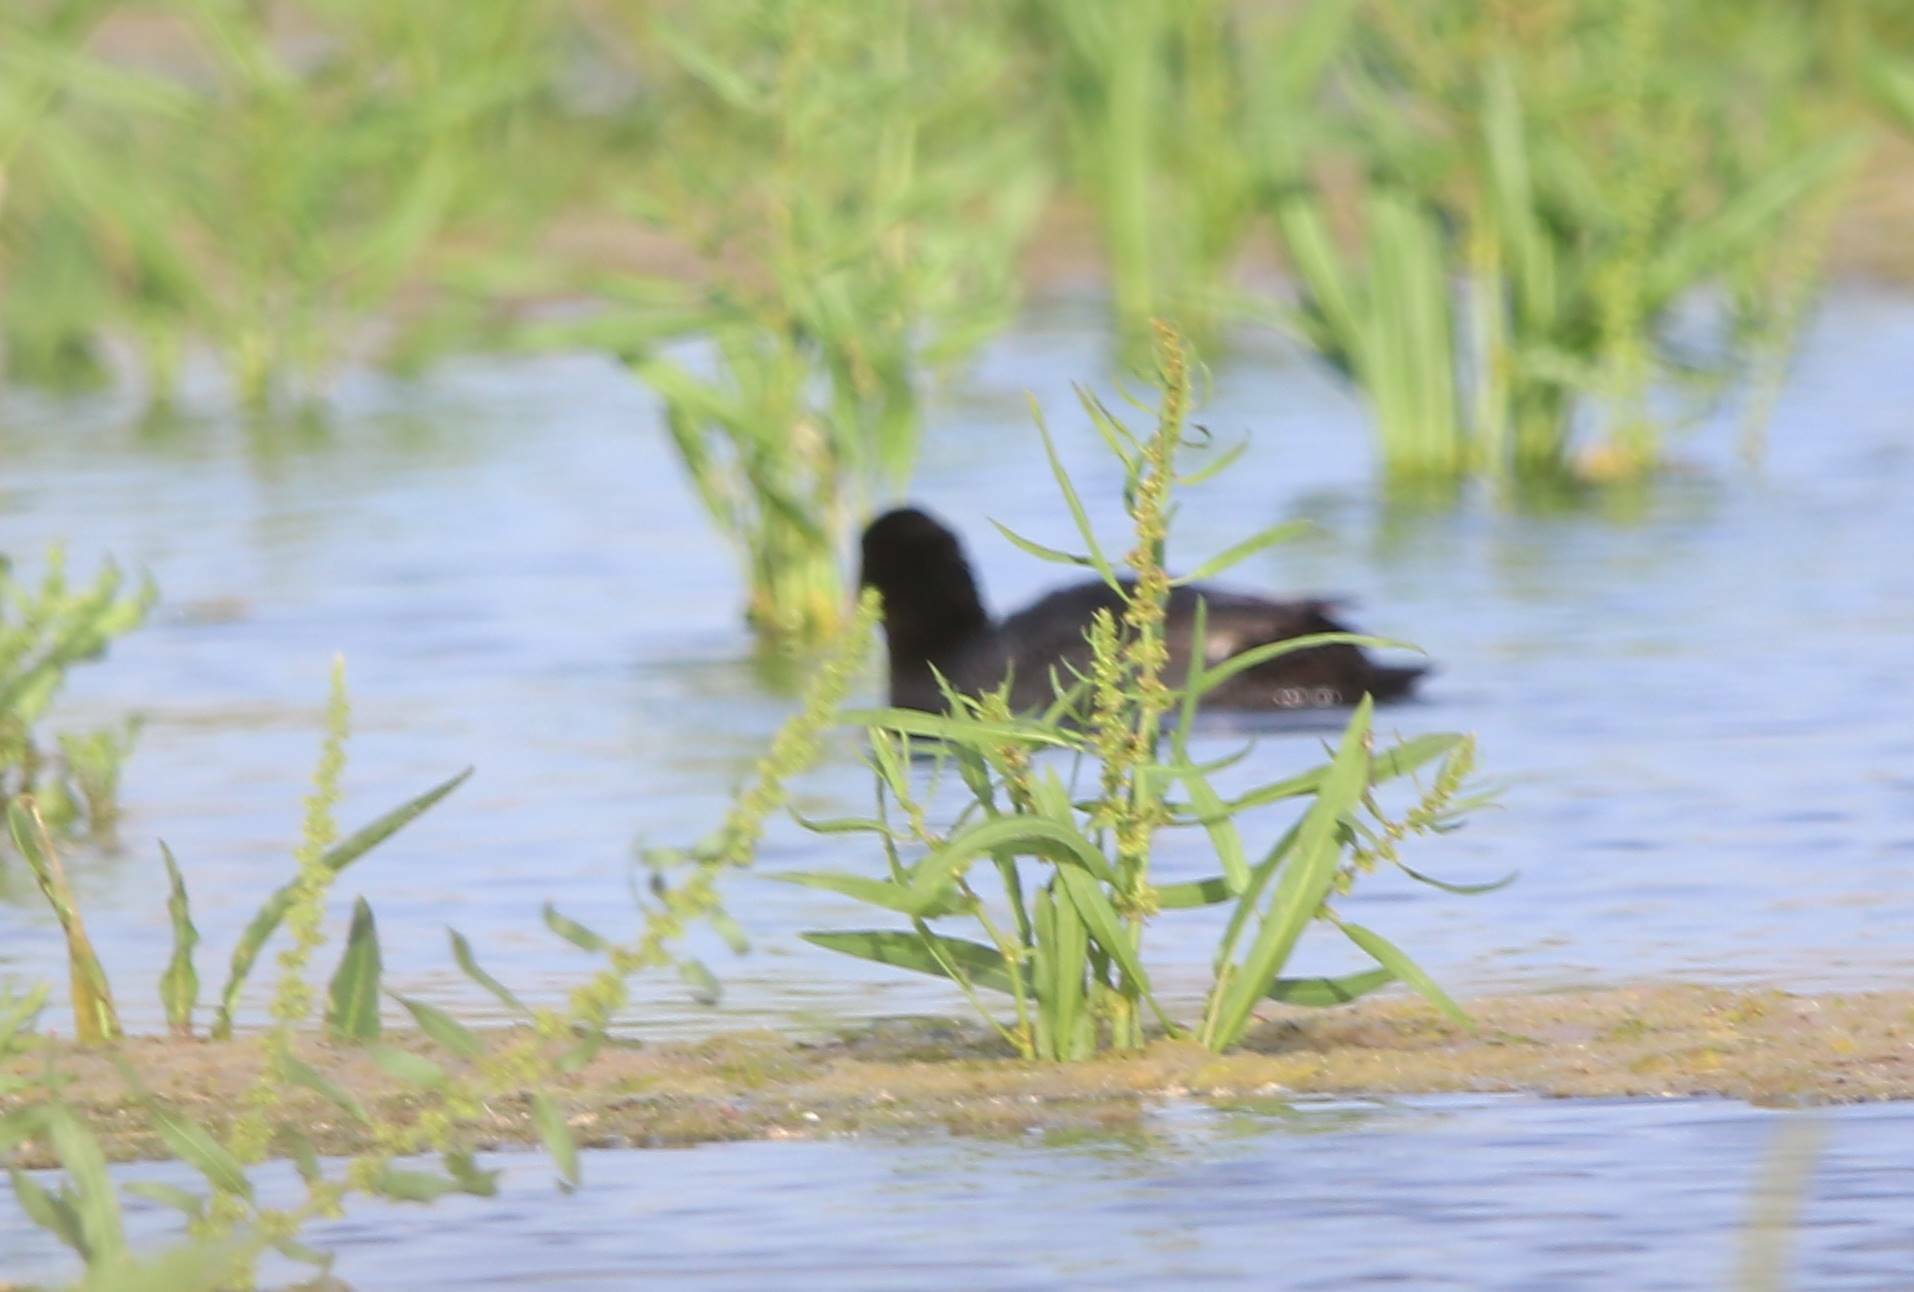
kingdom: Animalia
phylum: Chordata
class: Aves
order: Gruiformes
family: Rallidae
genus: Fulica
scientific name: Fulica atra
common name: Eurasian coot
